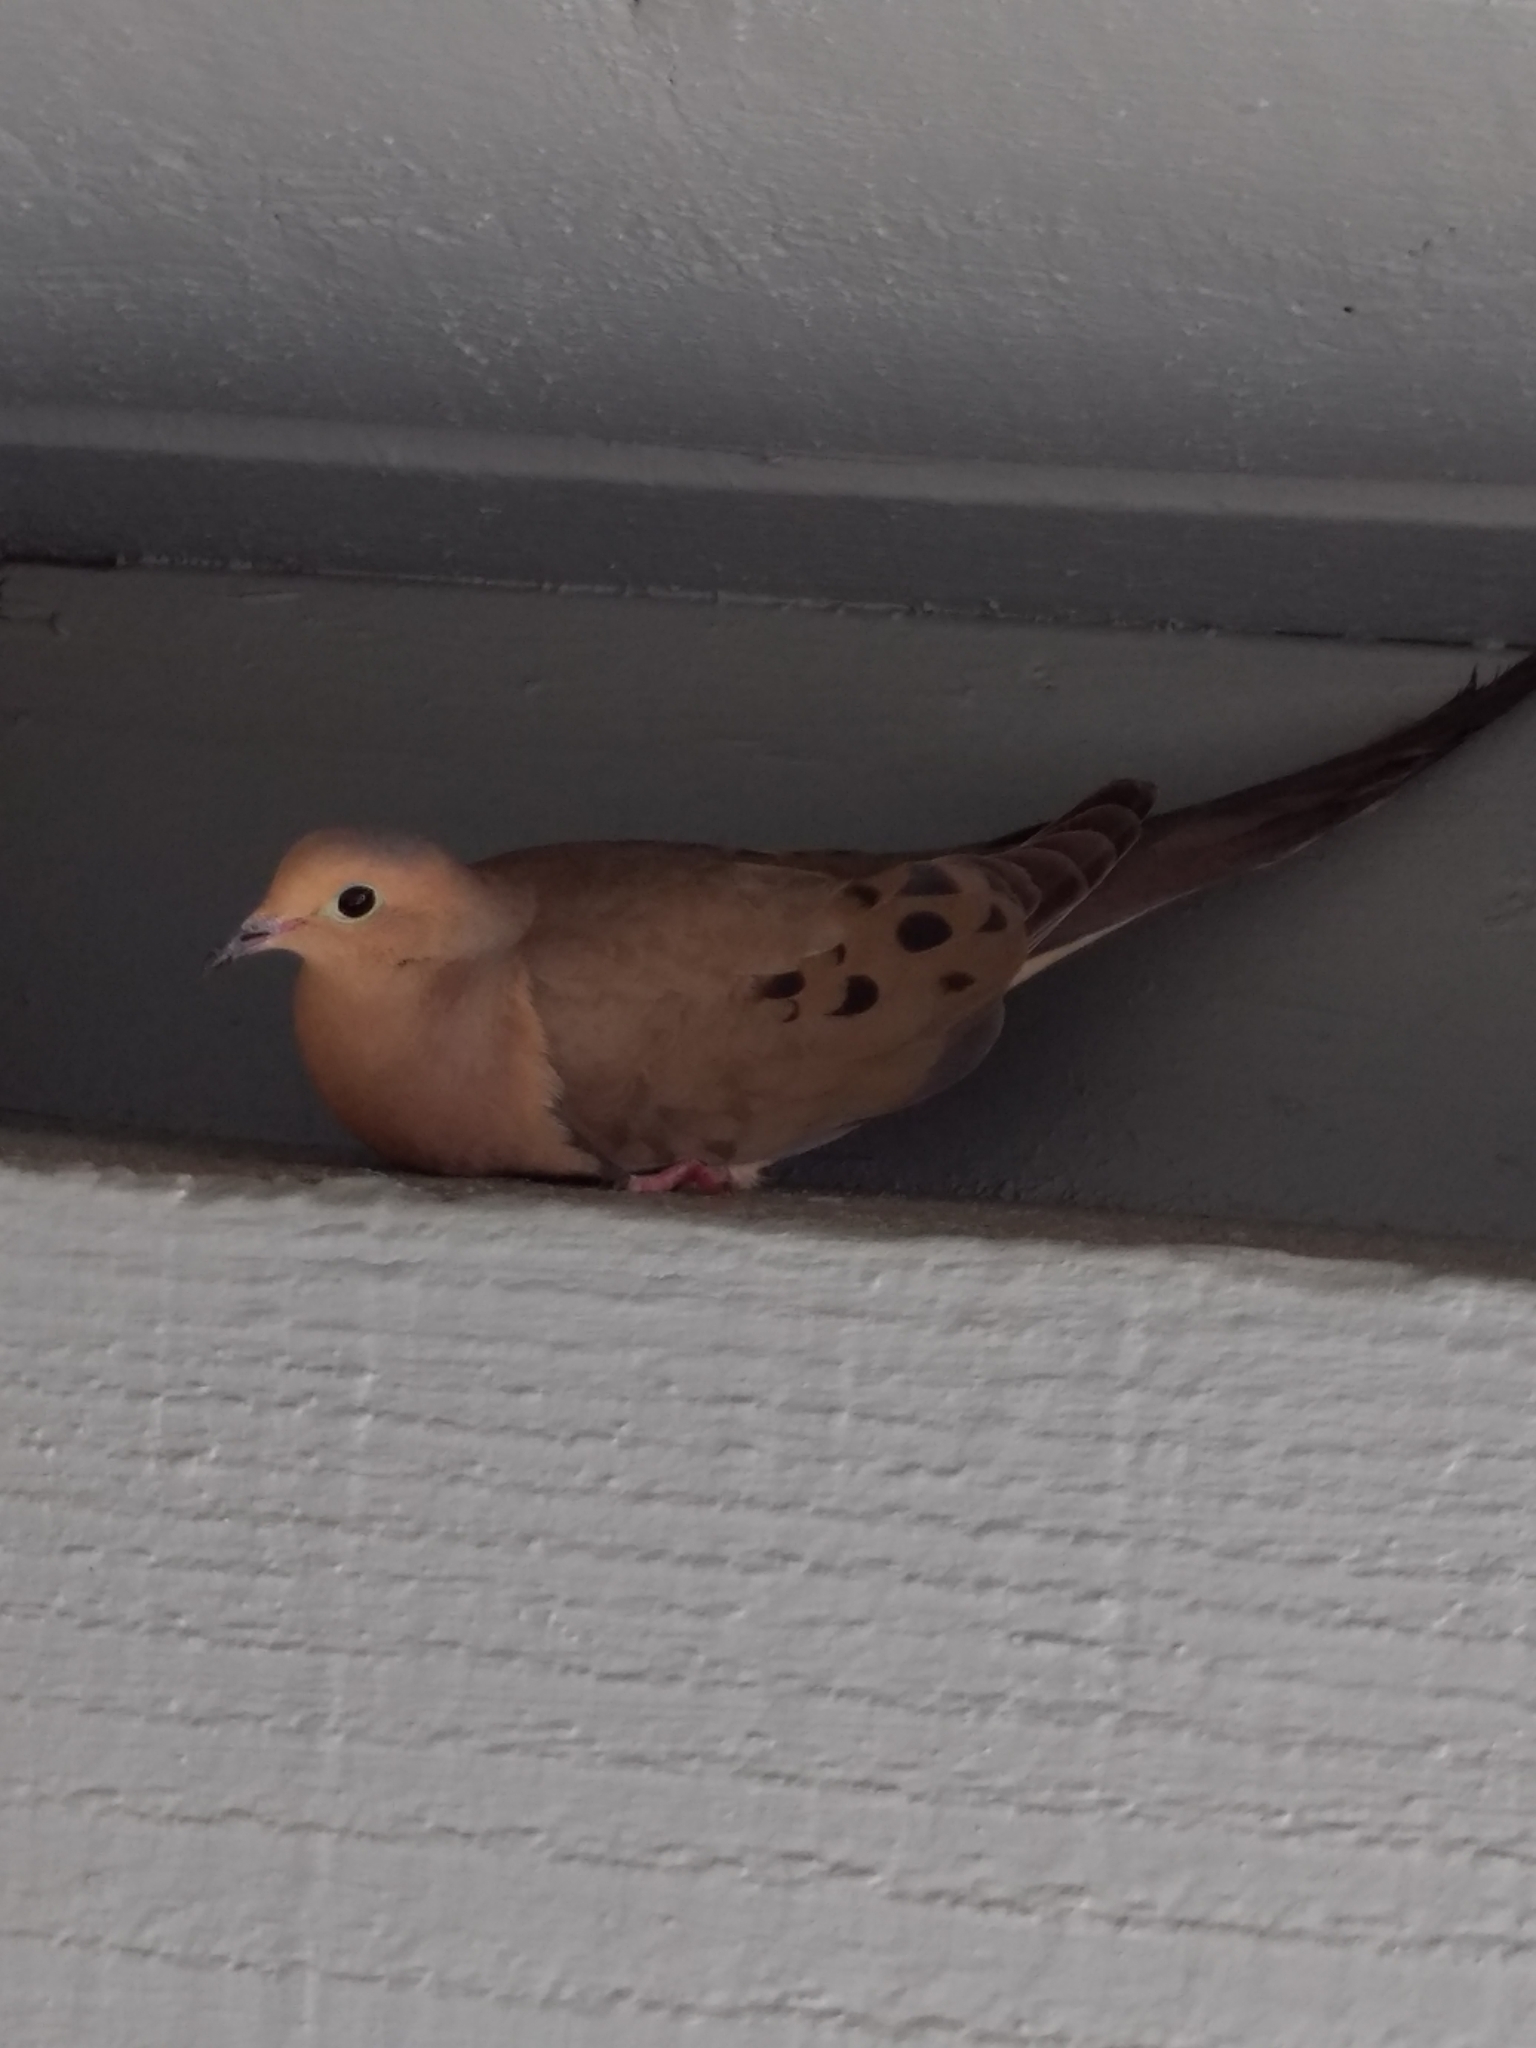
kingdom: Animalia
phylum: Chordata
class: Aves
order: Columbiformes
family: Columbidae
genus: Zenaida
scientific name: Zenaida macroura
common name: Mourning dove
